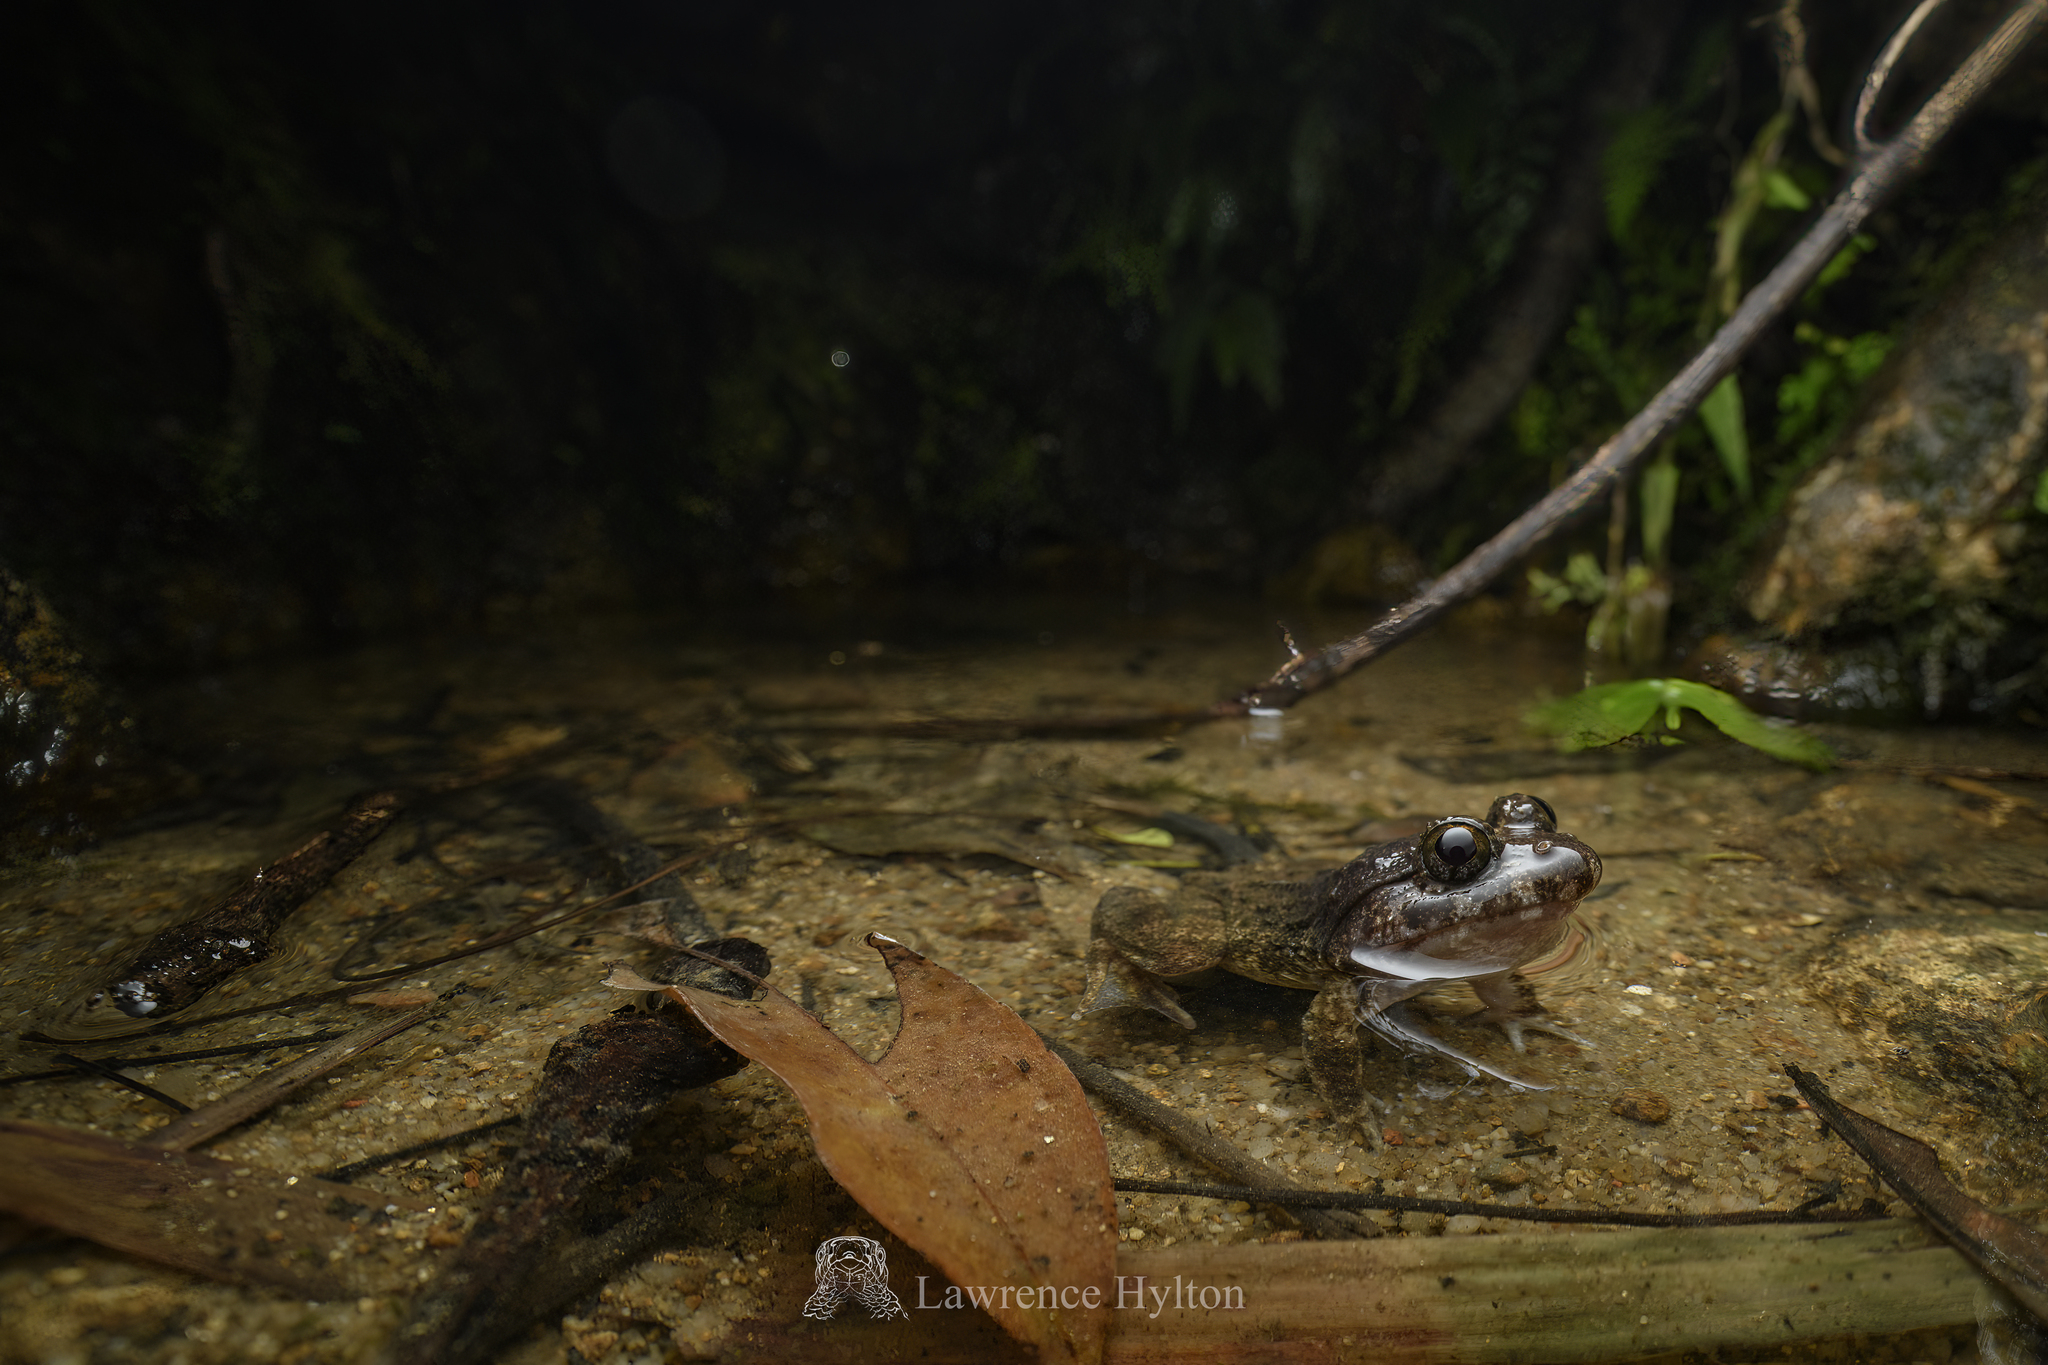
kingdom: Animalia
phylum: Chordata
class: Amphibia
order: Anura
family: Dicroglossidae
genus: Limnonectes
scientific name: Limnonectes fujianensis
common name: Fujian large-headed frog
